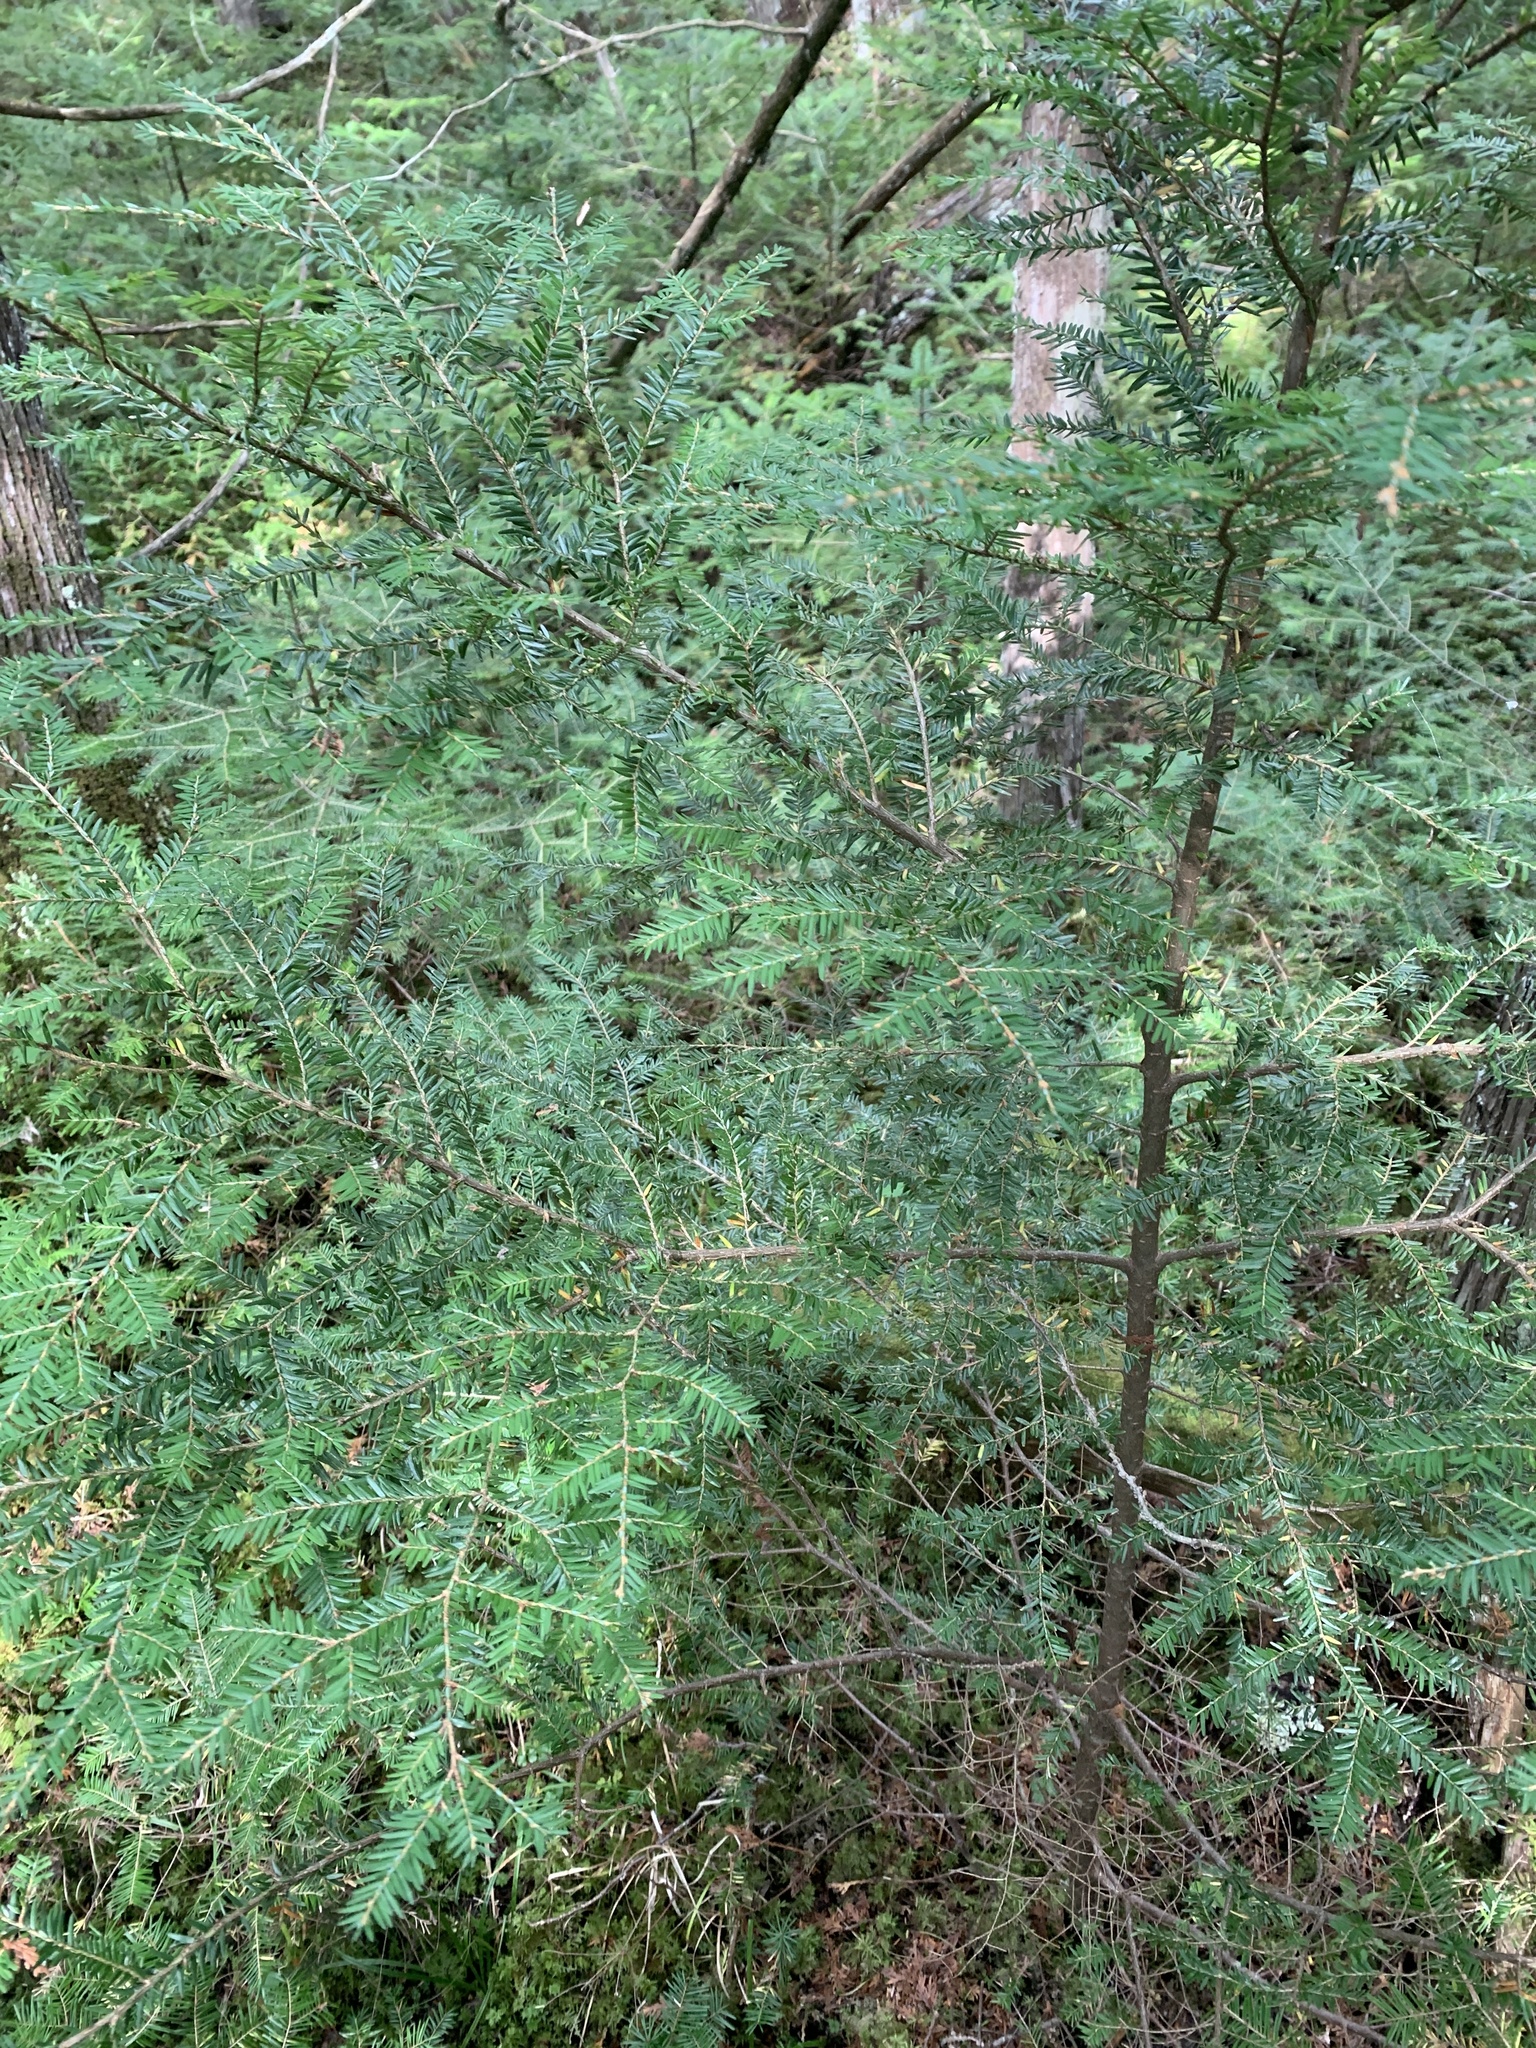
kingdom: Plantae
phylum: Tracheophyta
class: Pinopsida
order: Pinales
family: Pinaceae
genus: Tsuga
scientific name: Tsuga canadensis
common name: Eastern hemlock
